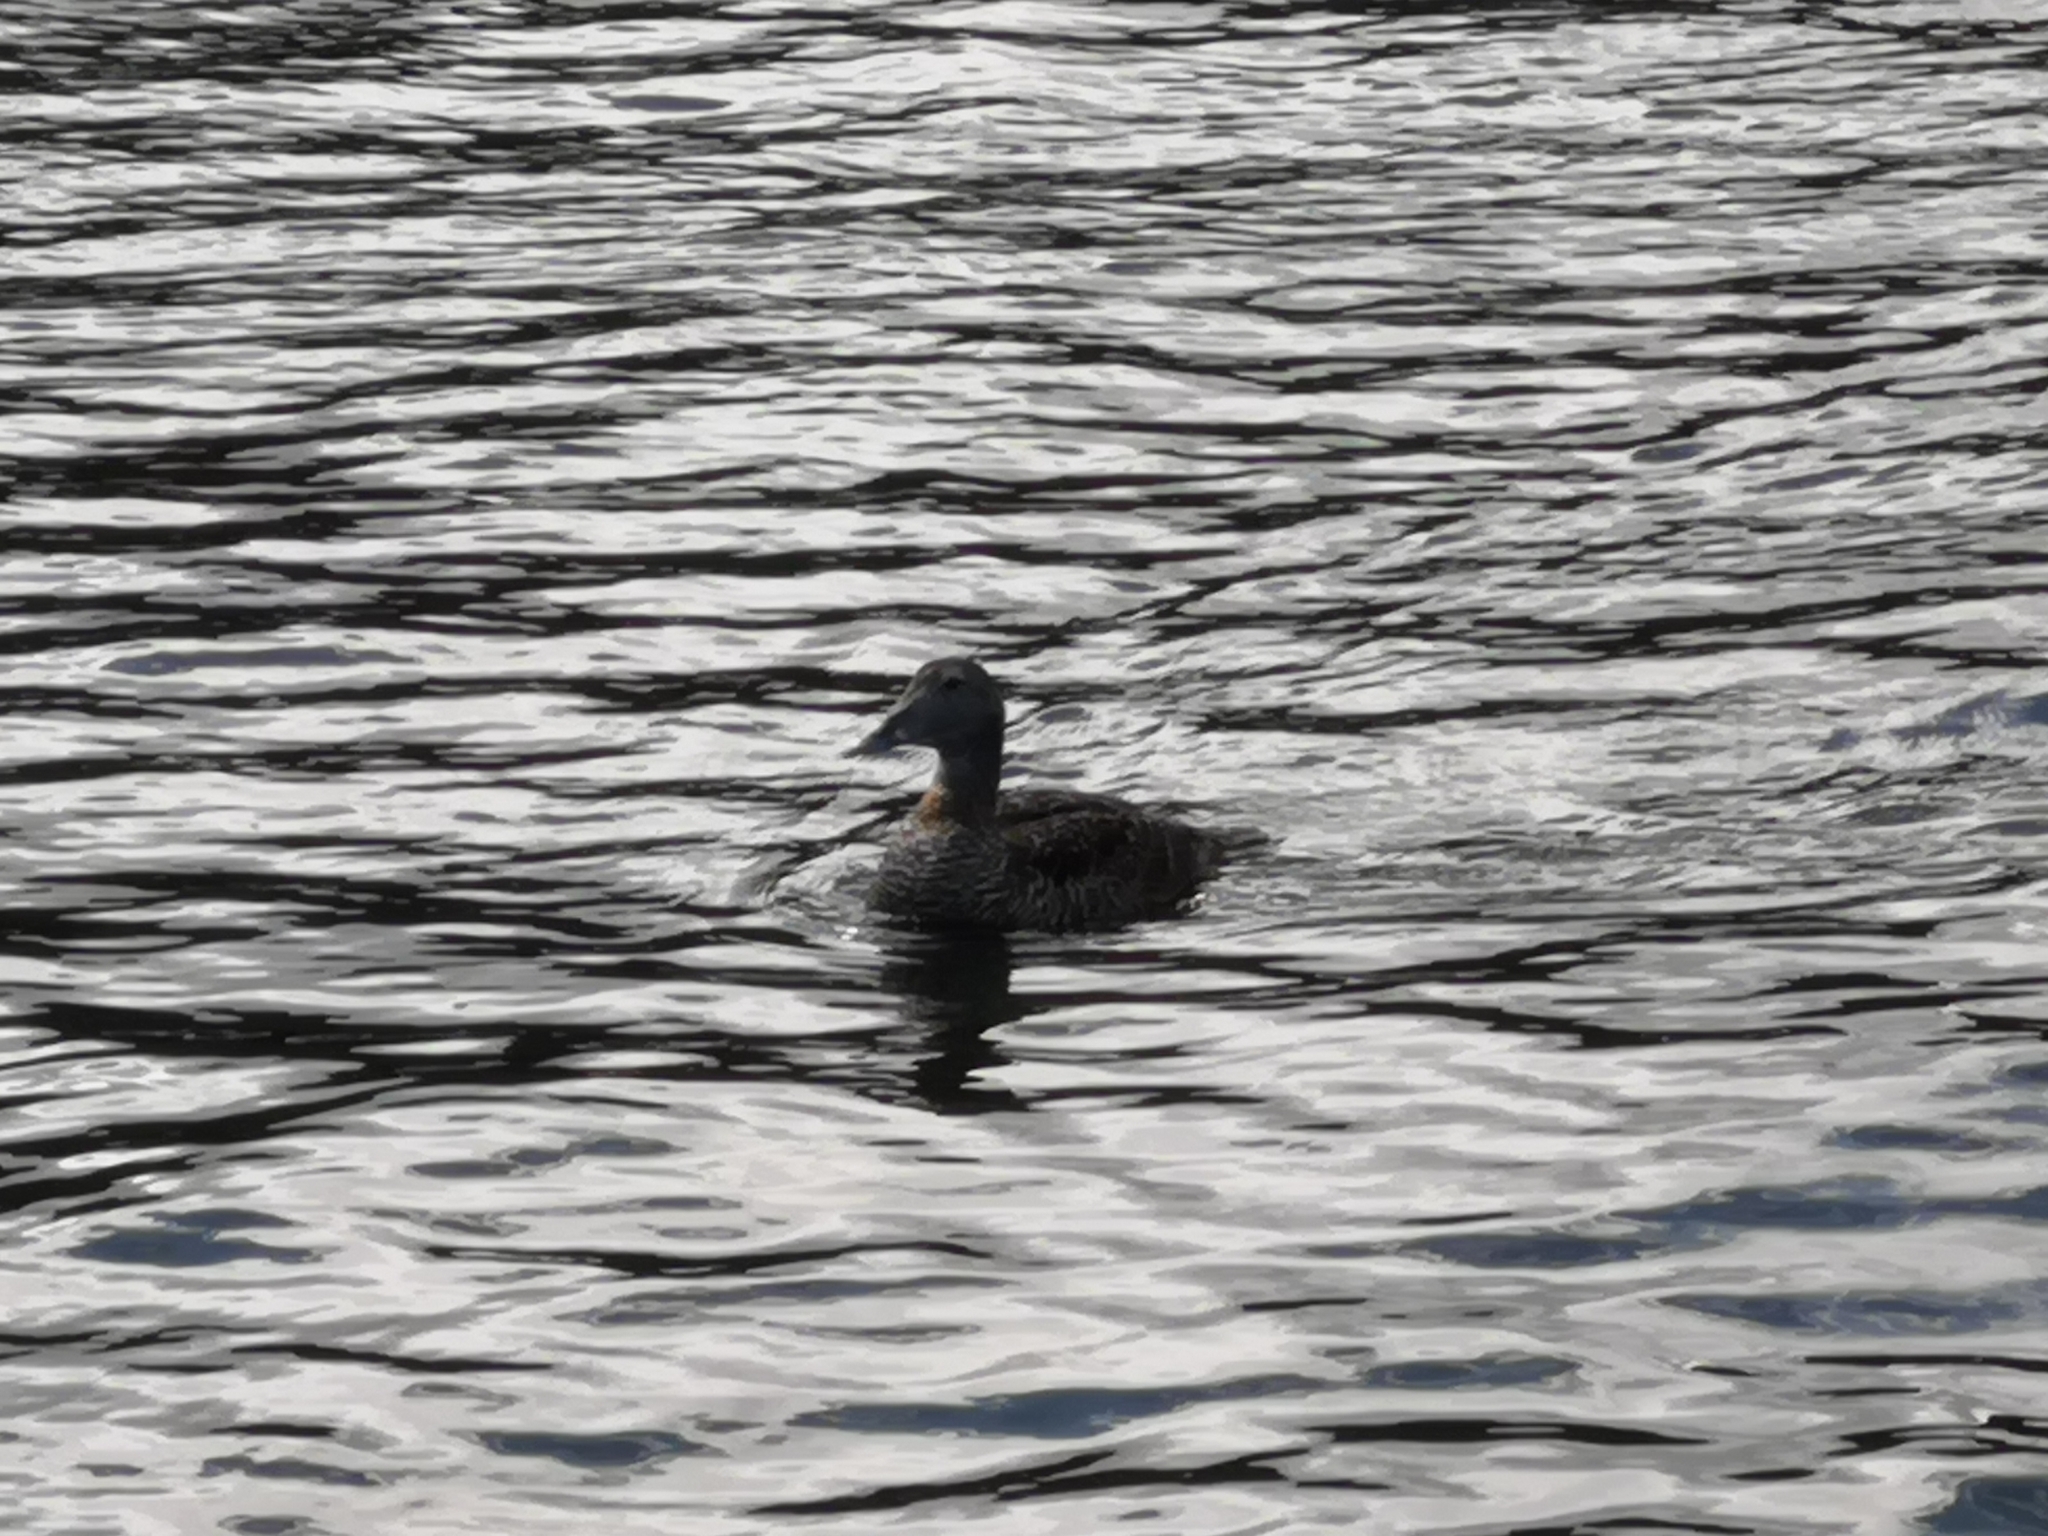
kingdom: Animalia
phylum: Chordata
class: Aves
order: Anseriformes
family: Anatidae
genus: Somateria
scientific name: Somateria mollissima
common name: Common eider
